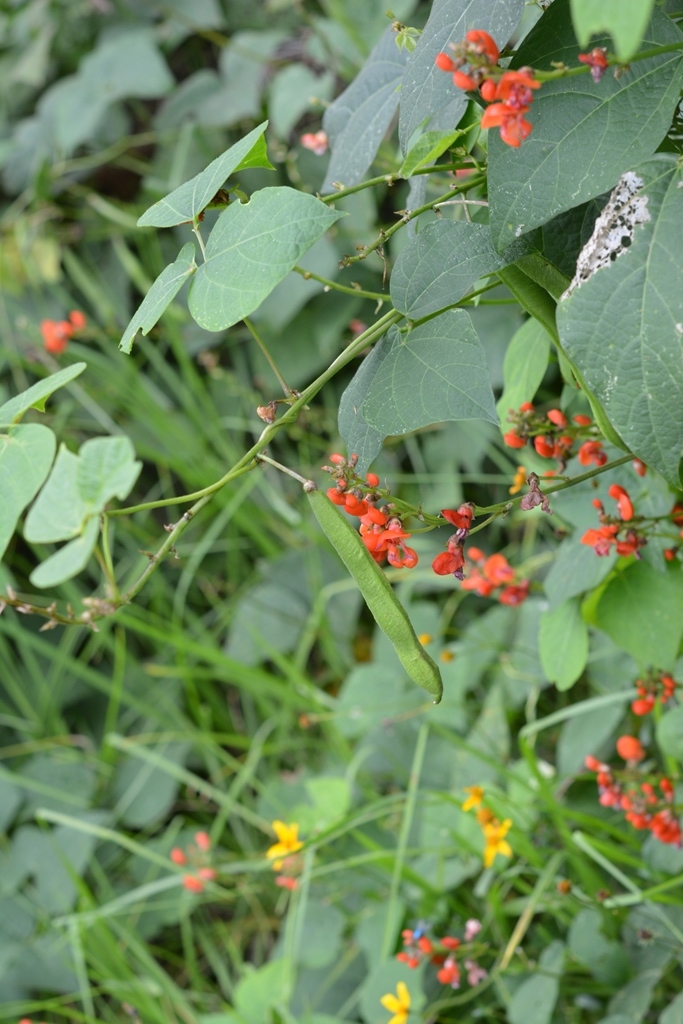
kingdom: Plantae
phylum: Tracheophyta
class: Magnoliopsida
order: Fabales
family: Fabaceae
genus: Phaseolus
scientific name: Phaseolus coccineus
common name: Runner bean
